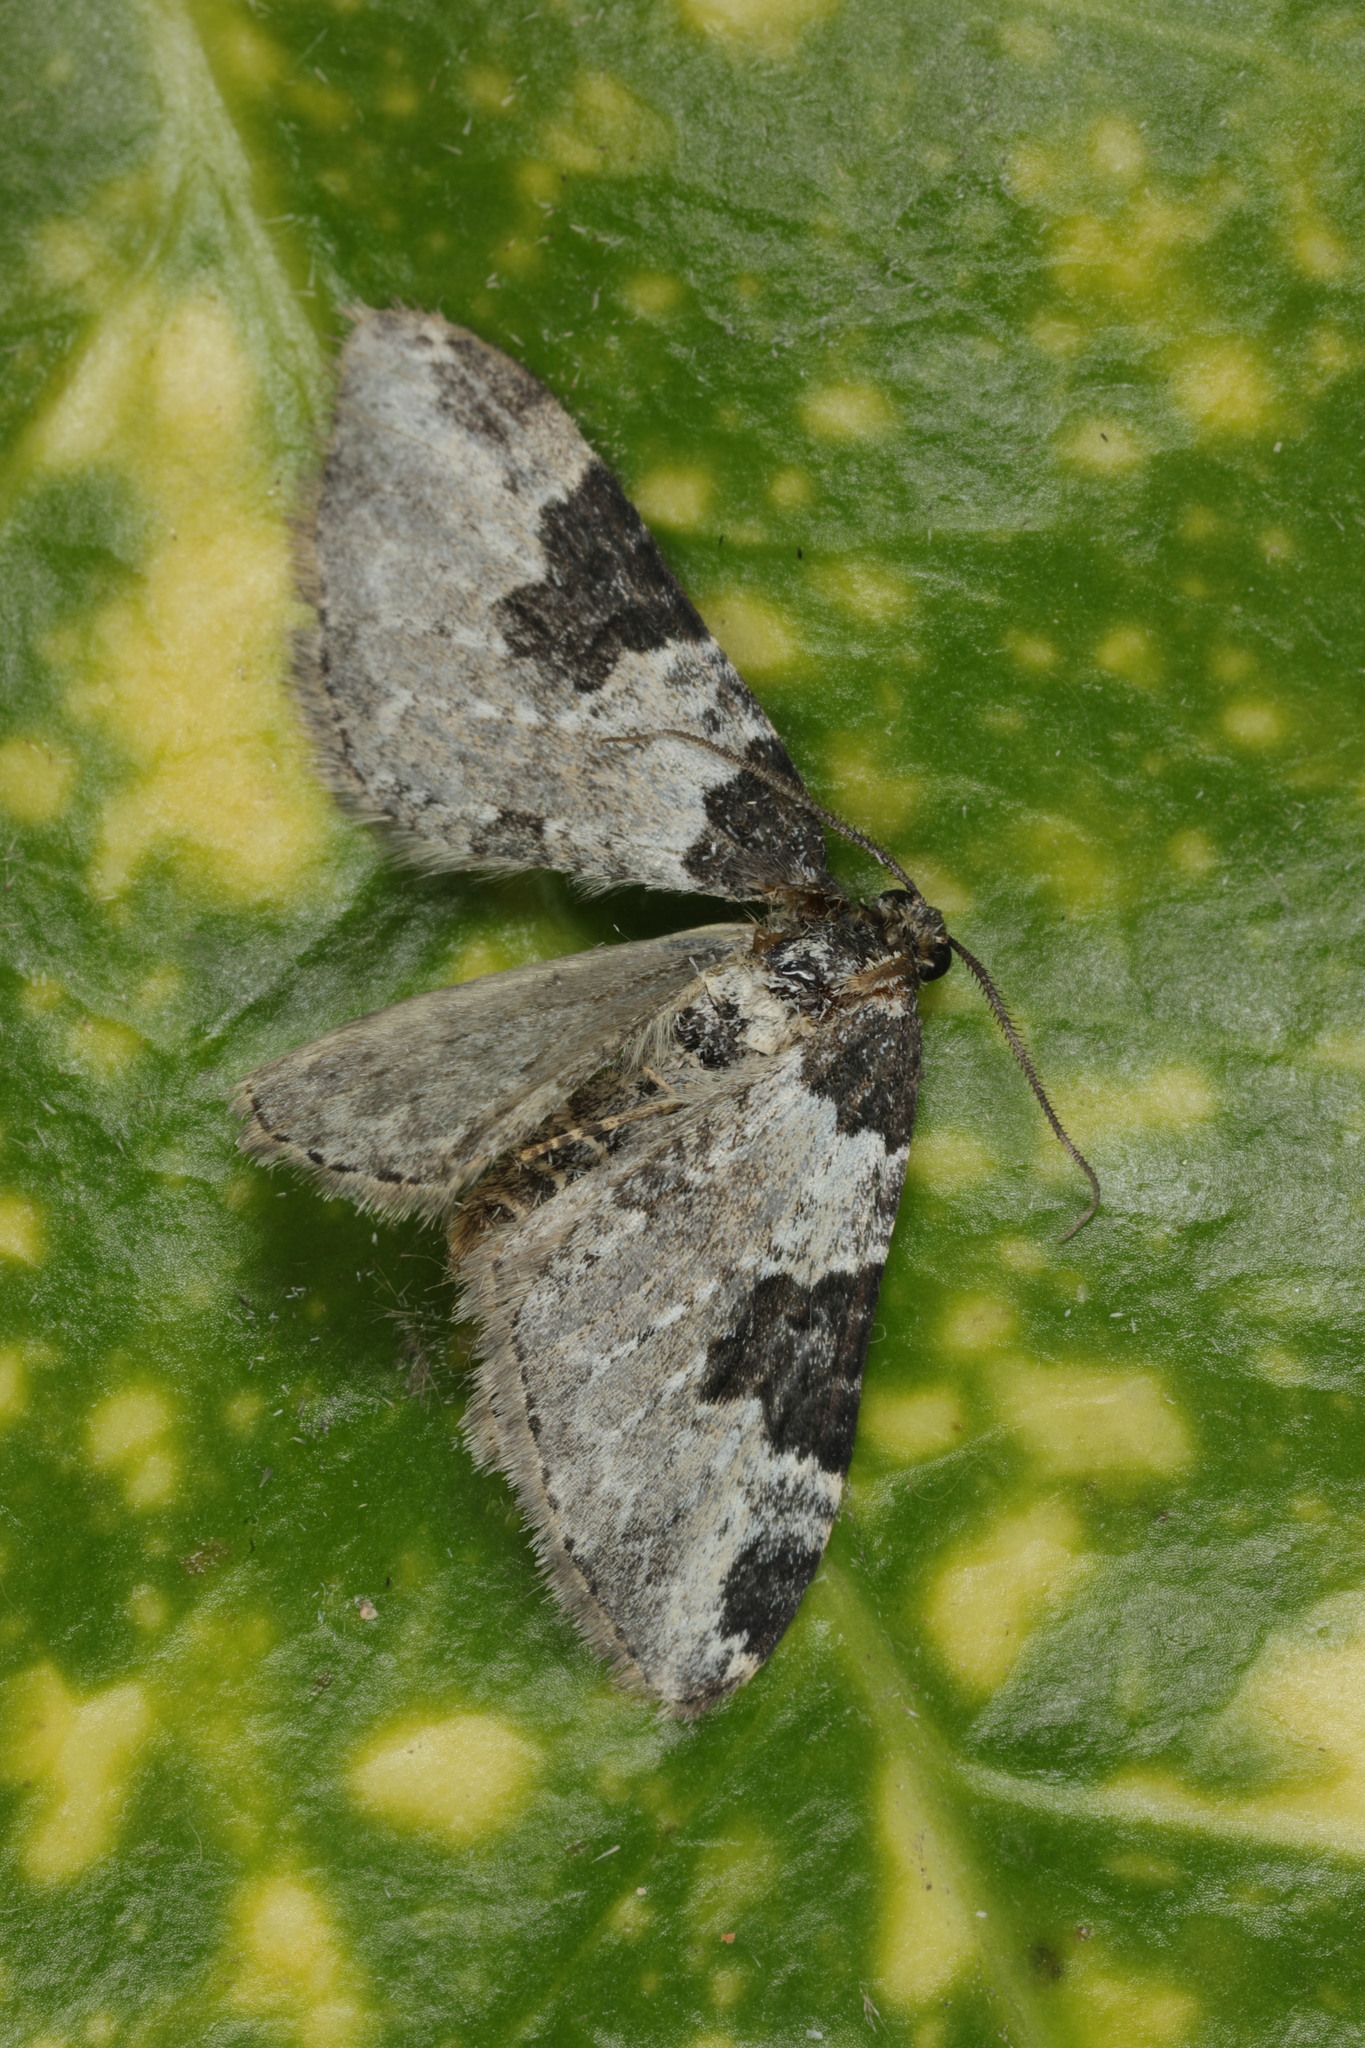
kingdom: Animalia
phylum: Arthropoda
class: Insecta
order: Lepidoptera
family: Geometridae
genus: Xanthorhoe
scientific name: Xanthorhoe fluctuata
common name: Garden carpet
